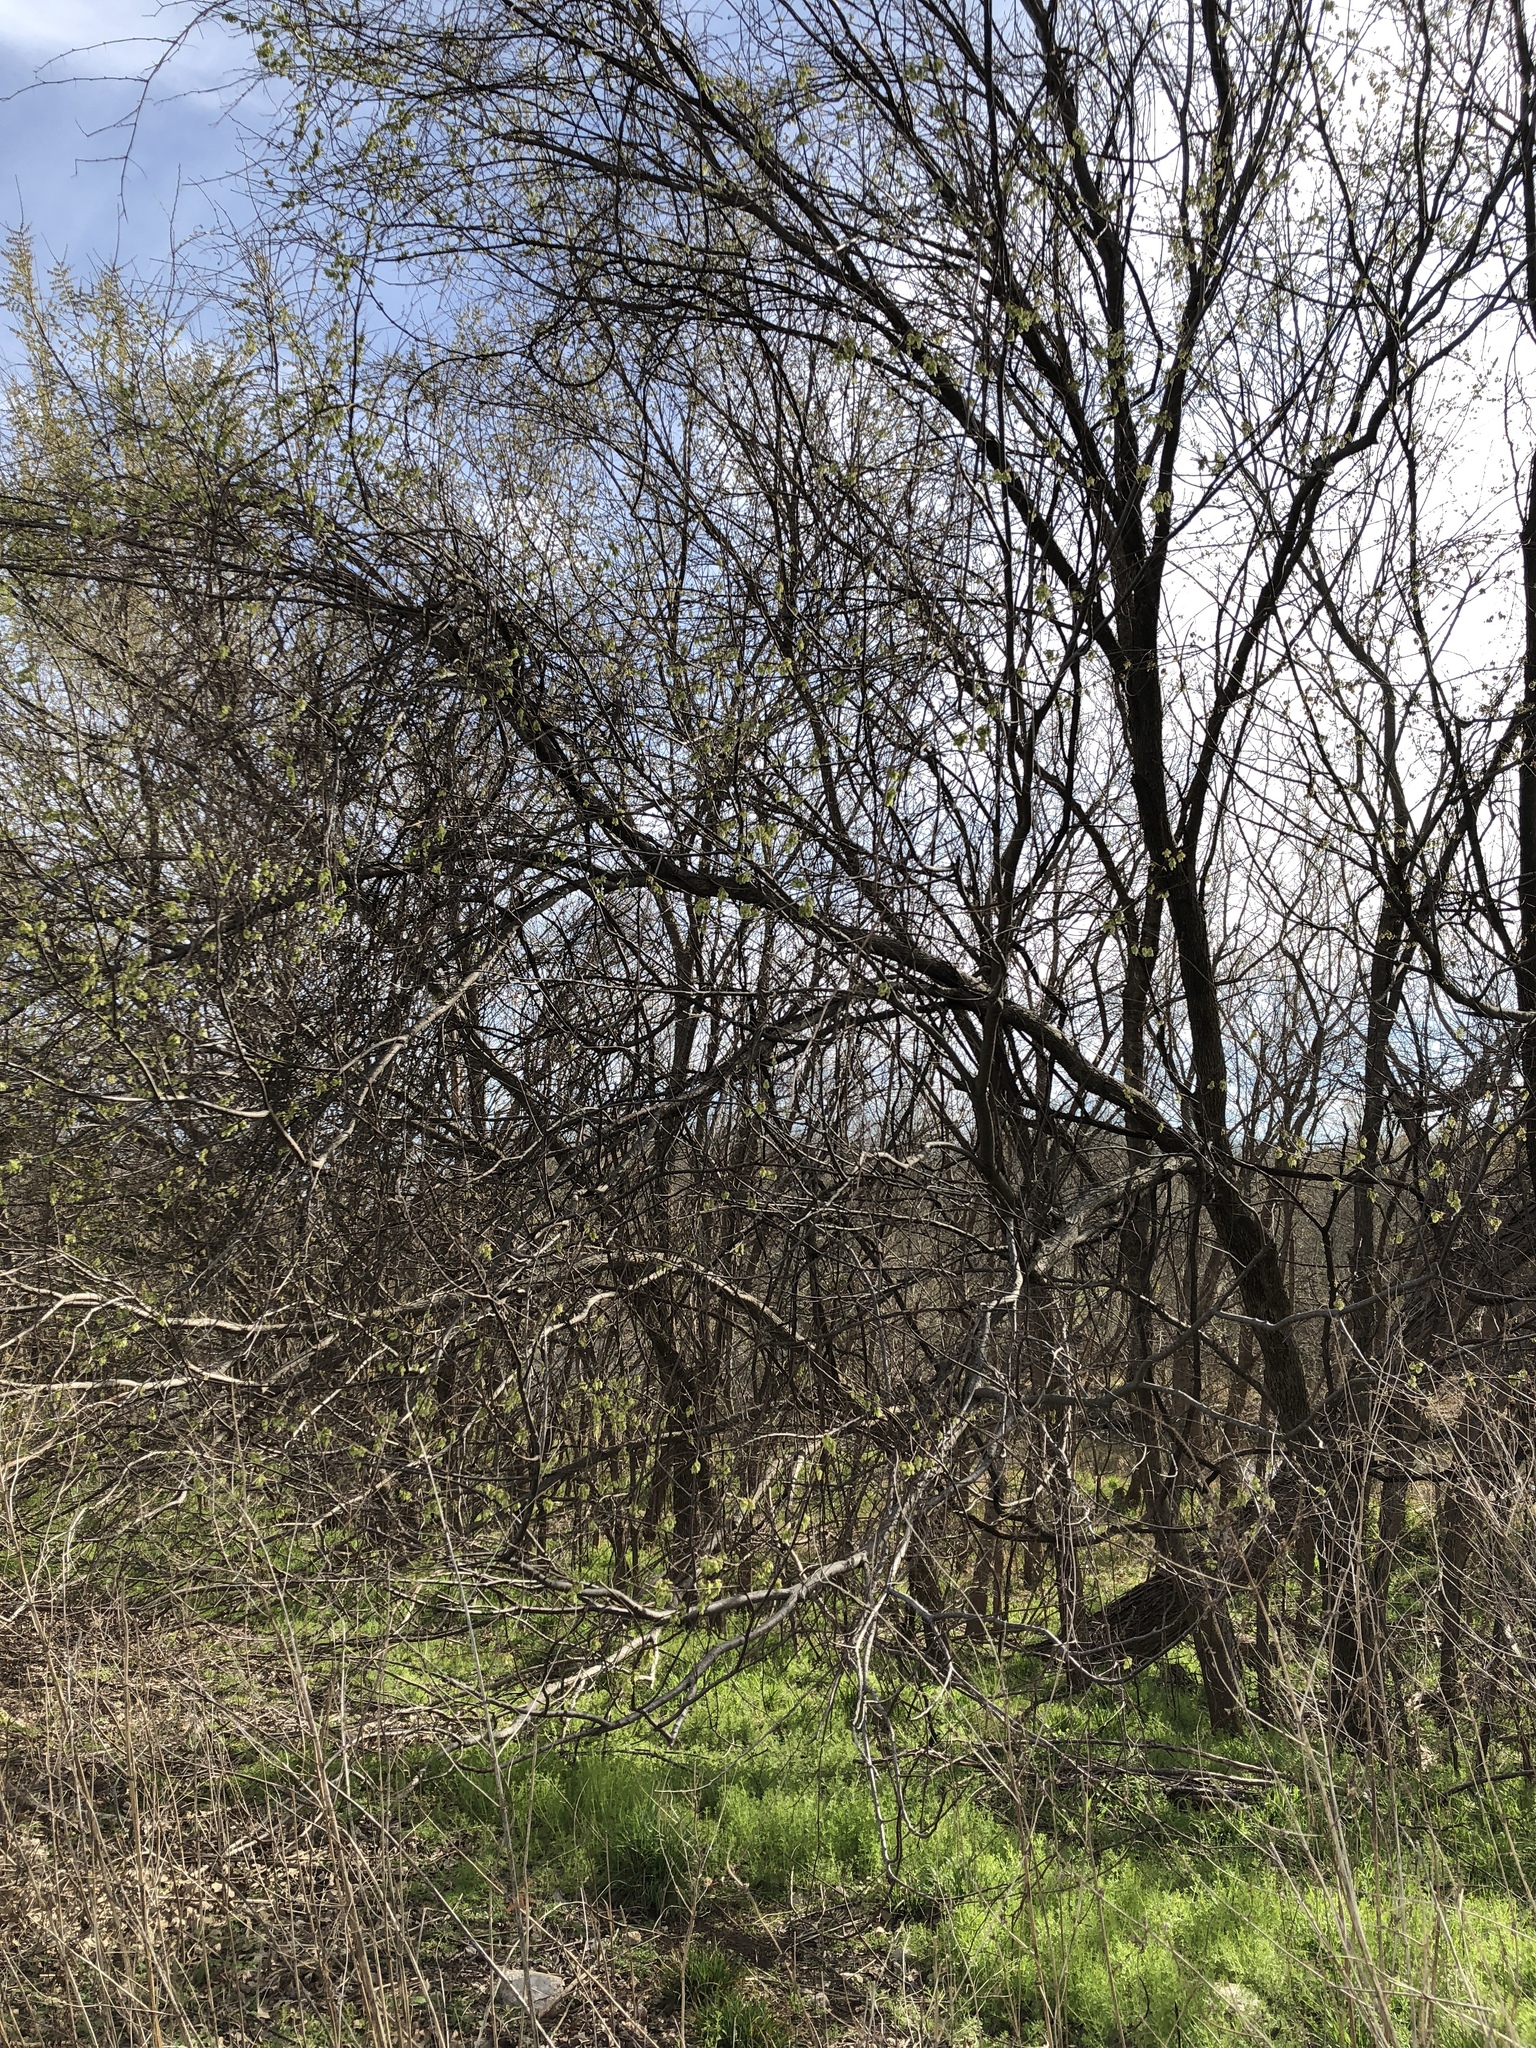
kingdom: Plantae
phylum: Tracheophyta
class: Magnoliopsida
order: Rosales
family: Ulmaceae
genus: Ulmus
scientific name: Ulmus americana
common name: American elm
